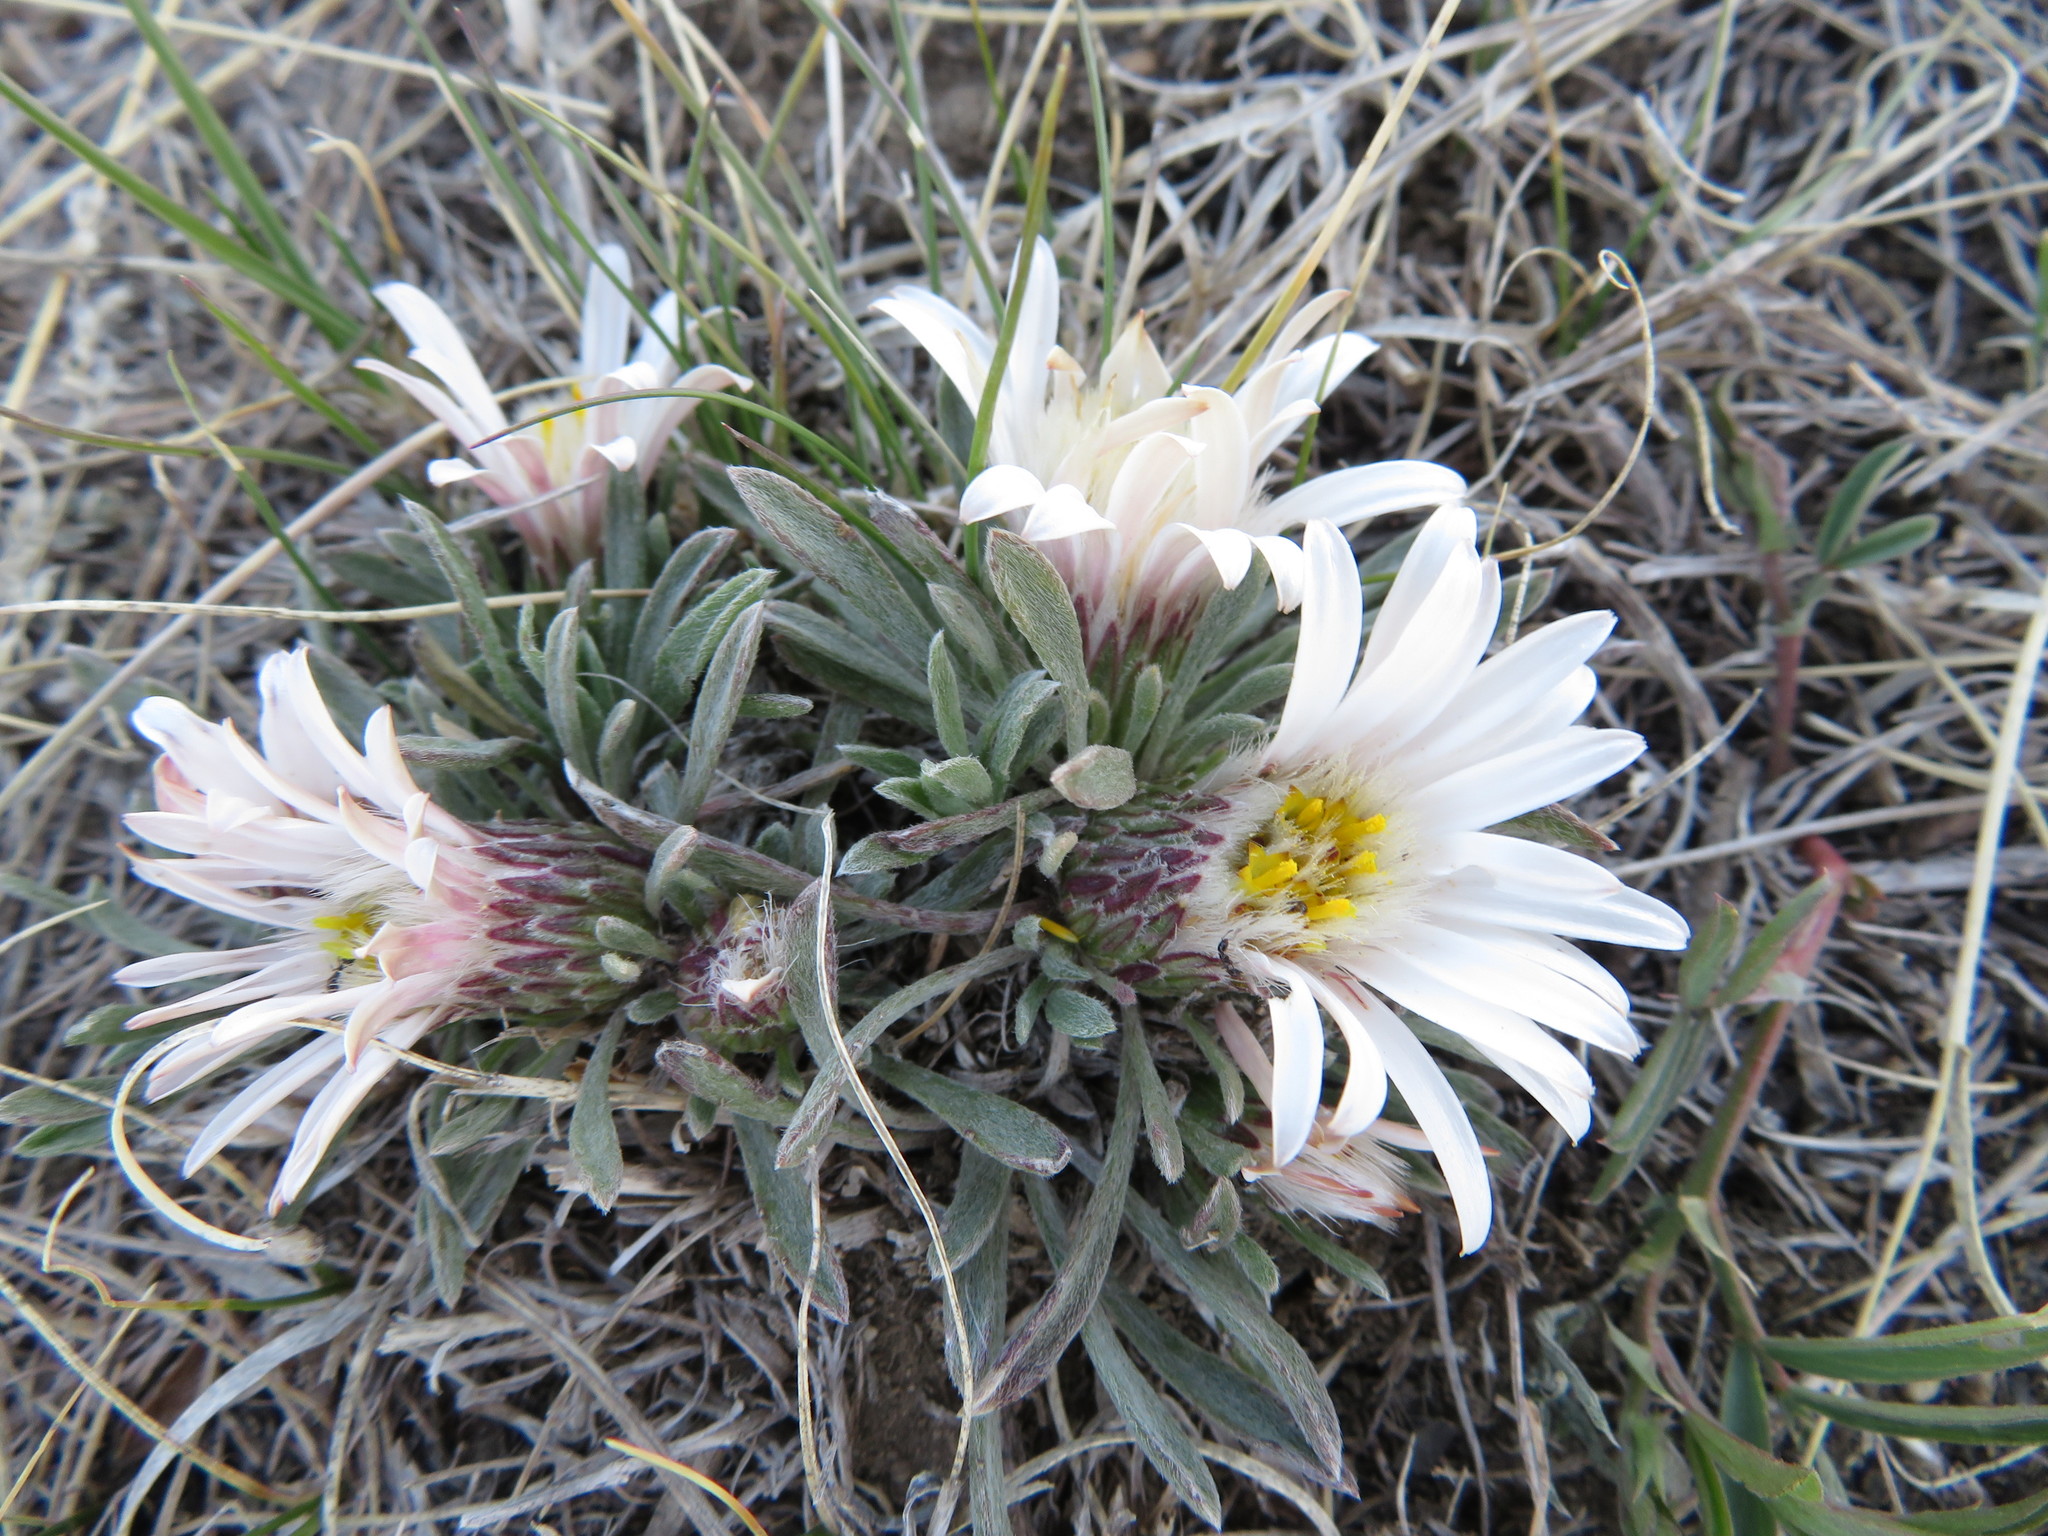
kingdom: Plantae
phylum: Tracheophyta
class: Magnoliopsida
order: Asterales
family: Asteraceae
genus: Townsendia
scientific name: Townsendia exscapa
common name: Dwarf townsendia
